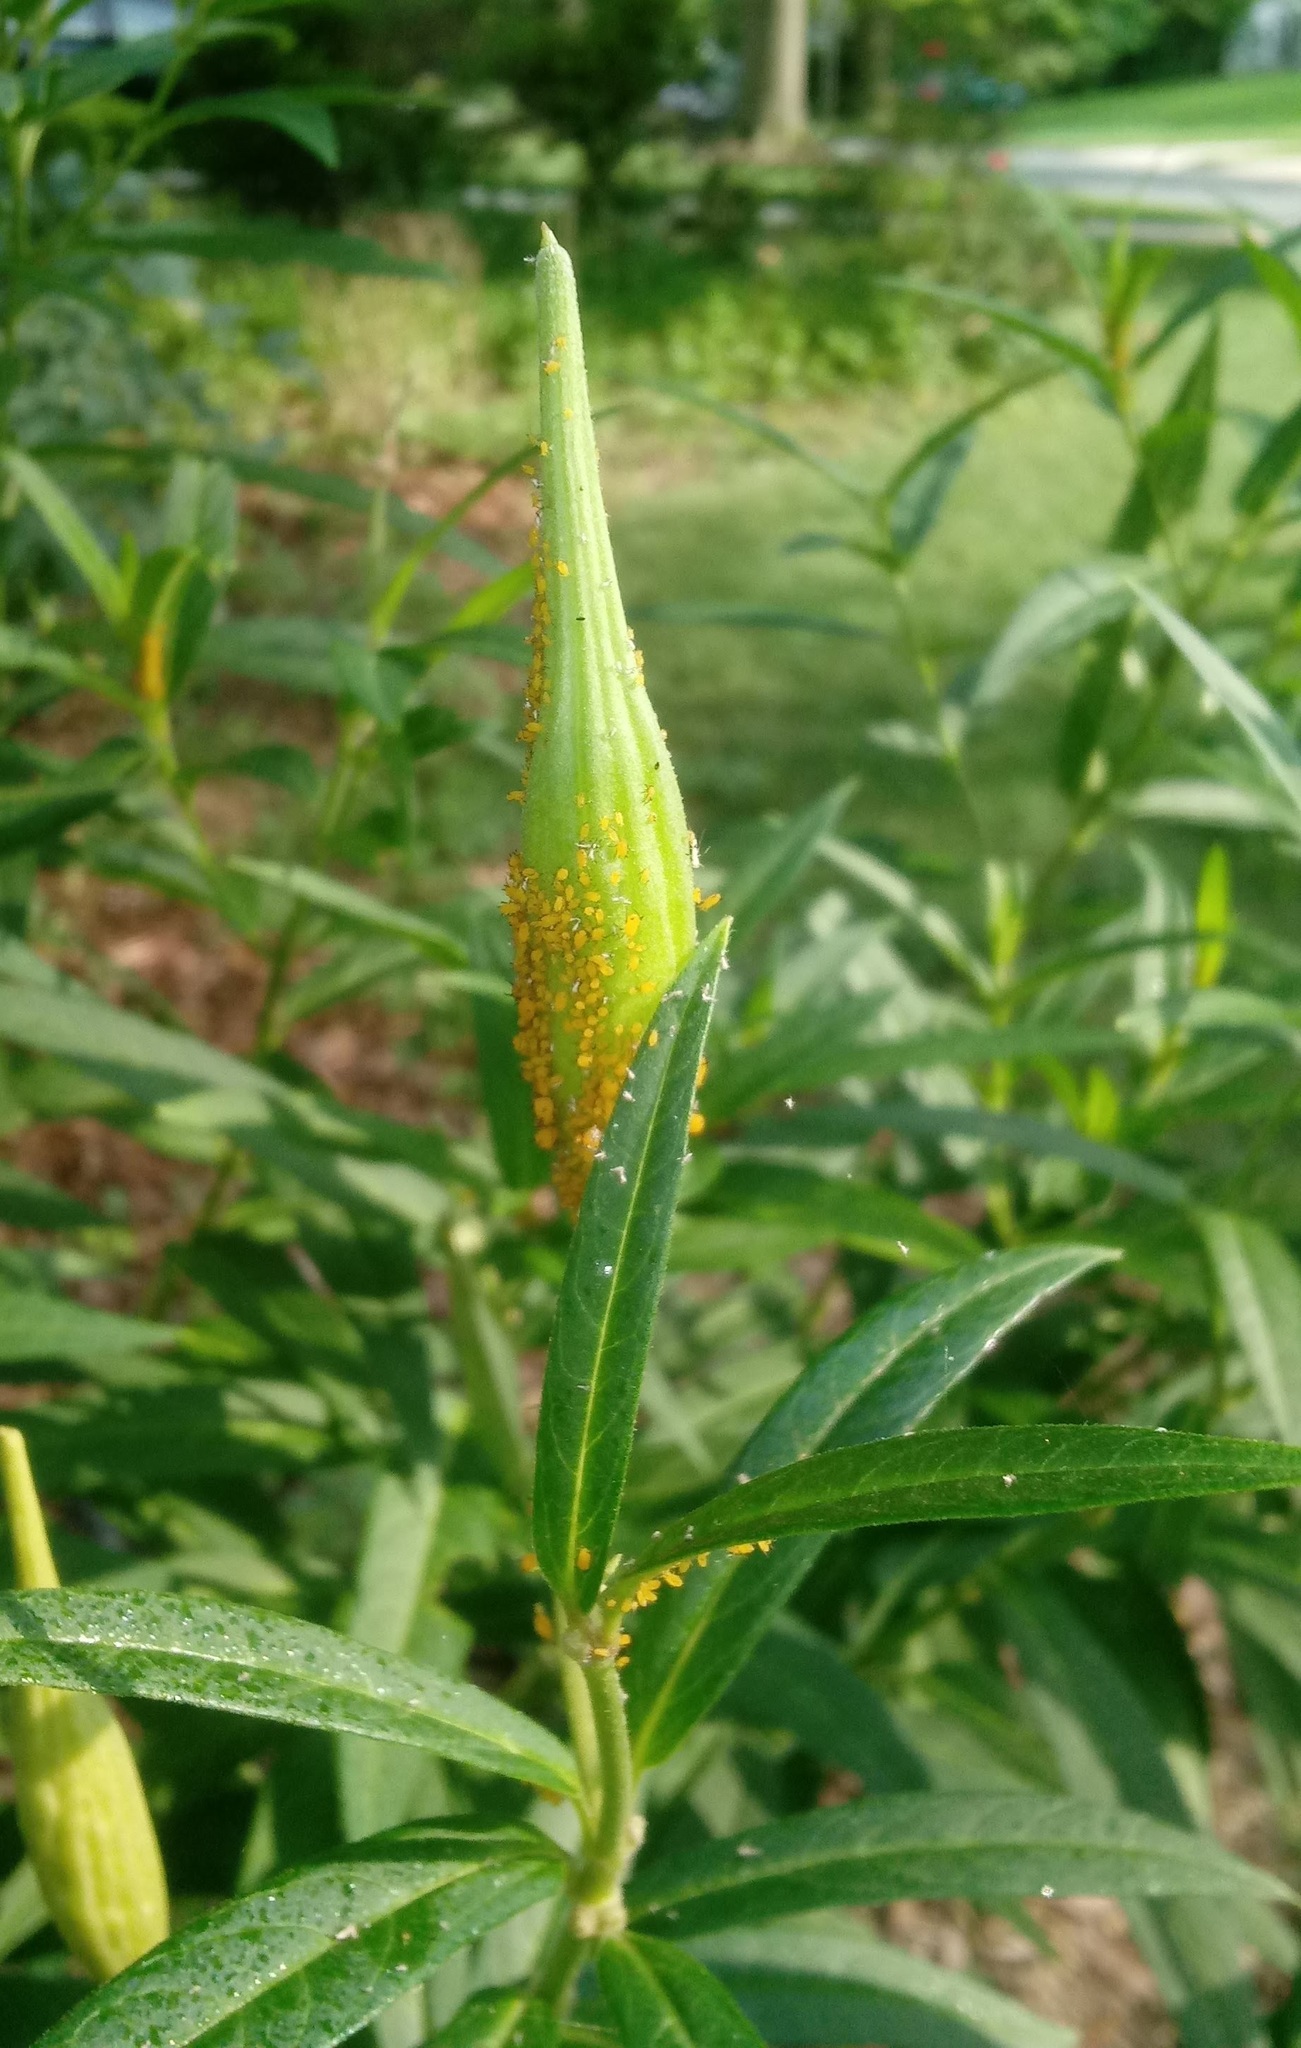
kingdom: Animalia
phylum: Arthropoda
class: Insecta
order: Hemiptera
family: Aphididae
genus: Aphis
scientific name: Aphis nerii
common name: Oleander aphid
